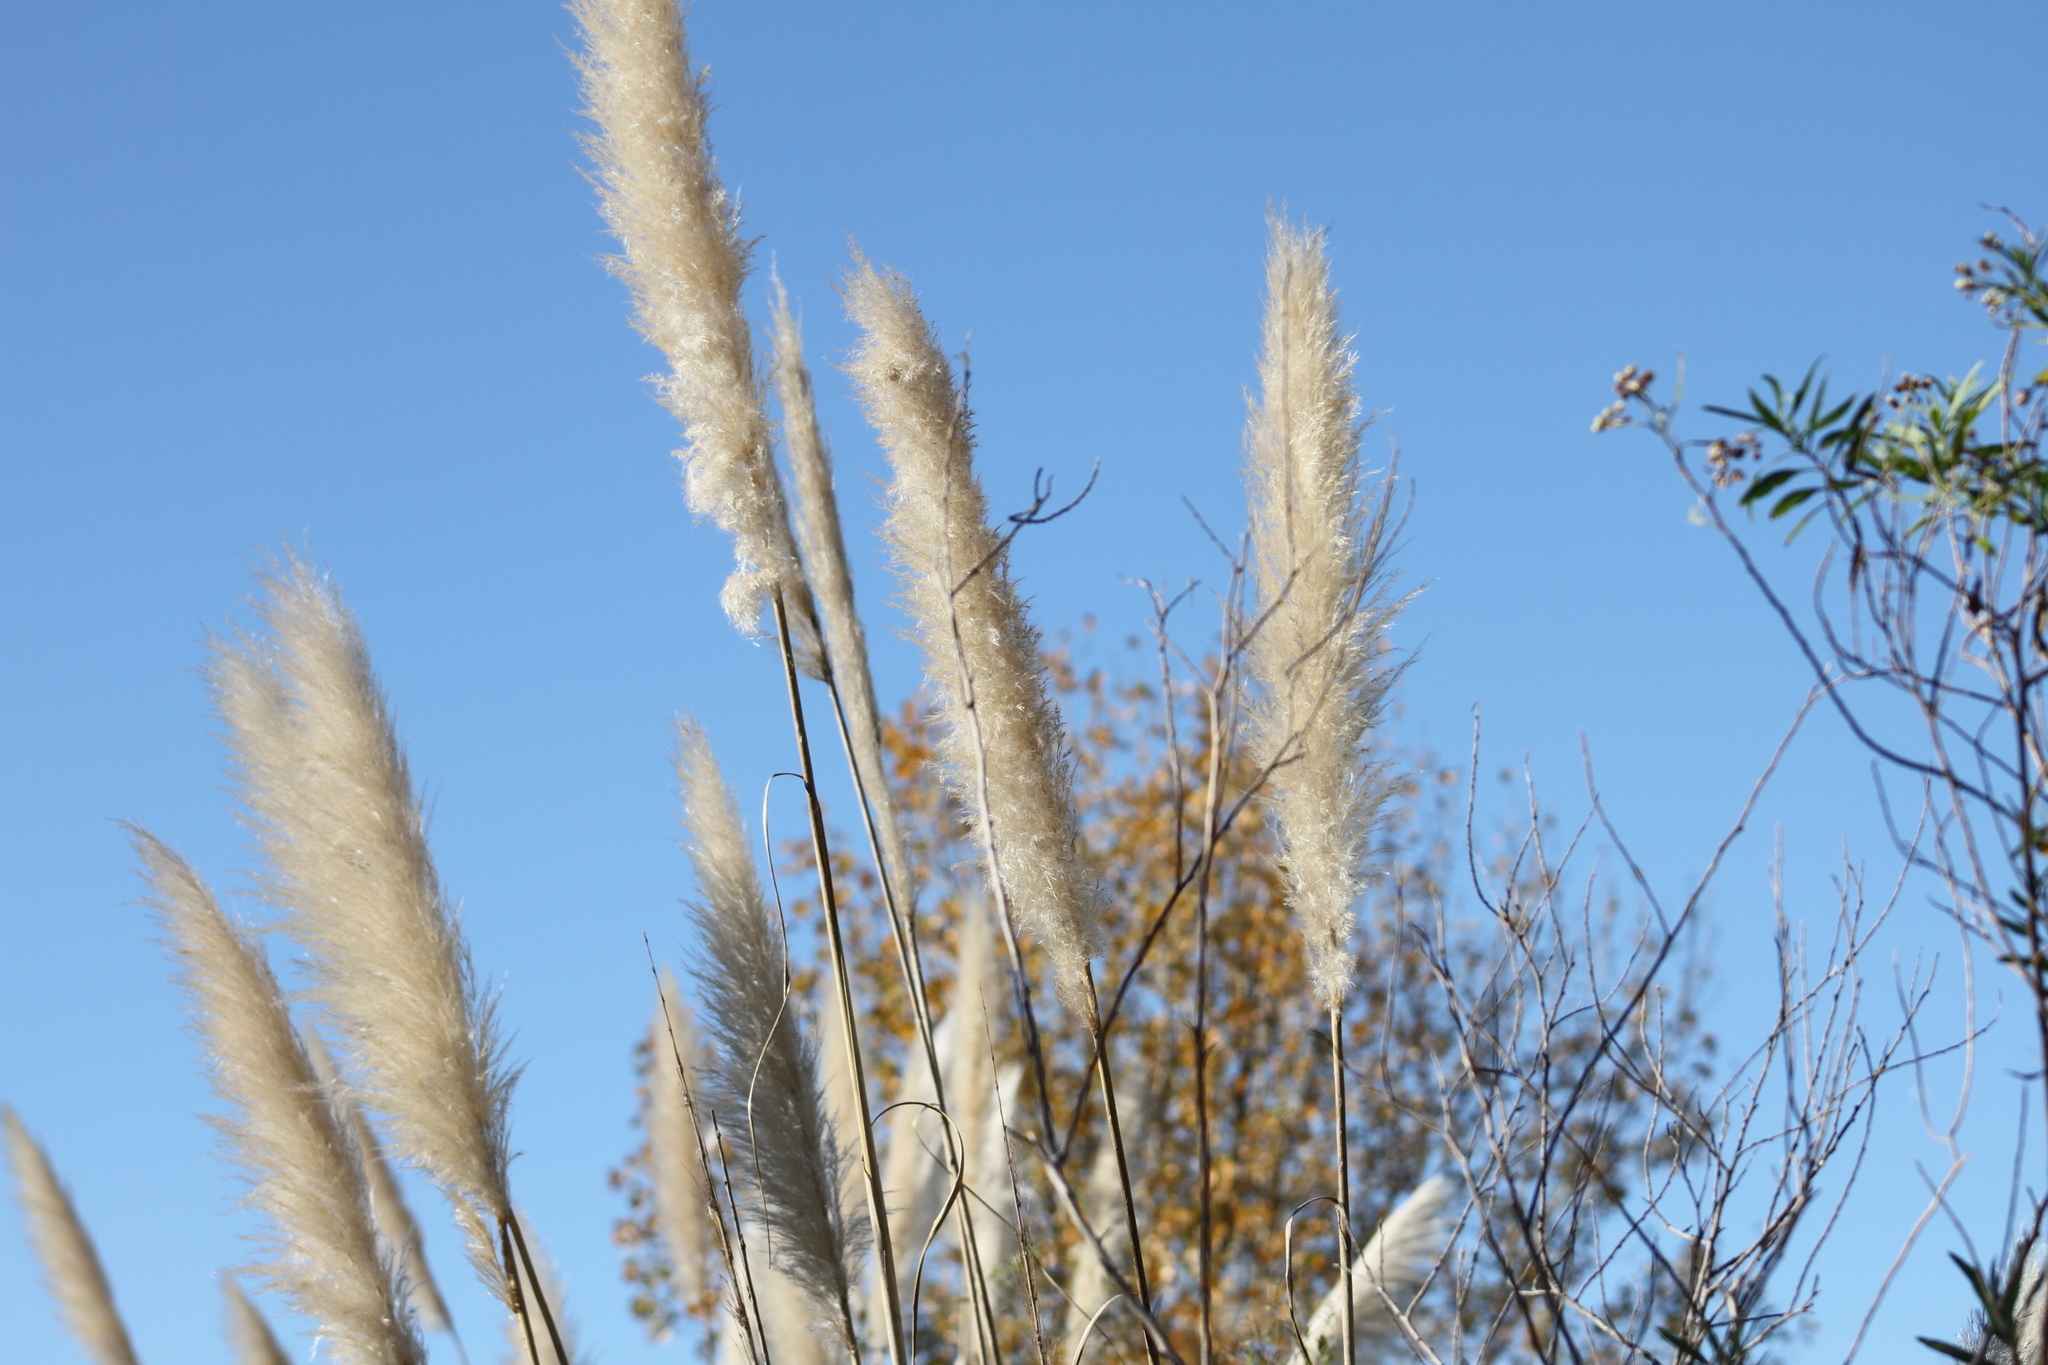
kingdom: Plantae
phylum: Tracheophyta
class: Liliopsida
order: Poales
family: Poaceae
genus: Cortaderia
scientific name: Cortaderia selloana
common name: Uruguayan pampas grass
